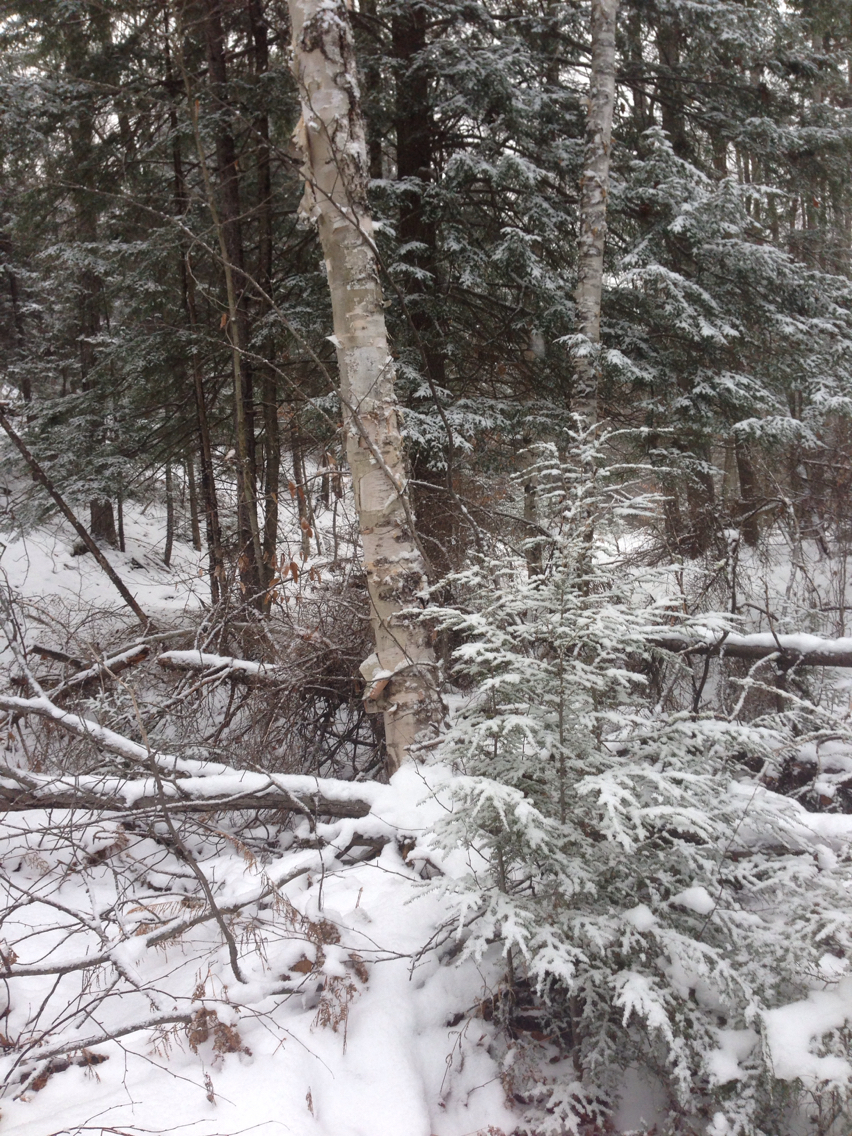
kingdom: Plantae
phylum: Tracheophyta
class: Magnoliopsida
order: Fagales
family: Betulaceae
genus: Betula
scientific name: Betula papyrifera
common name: Paper birch
